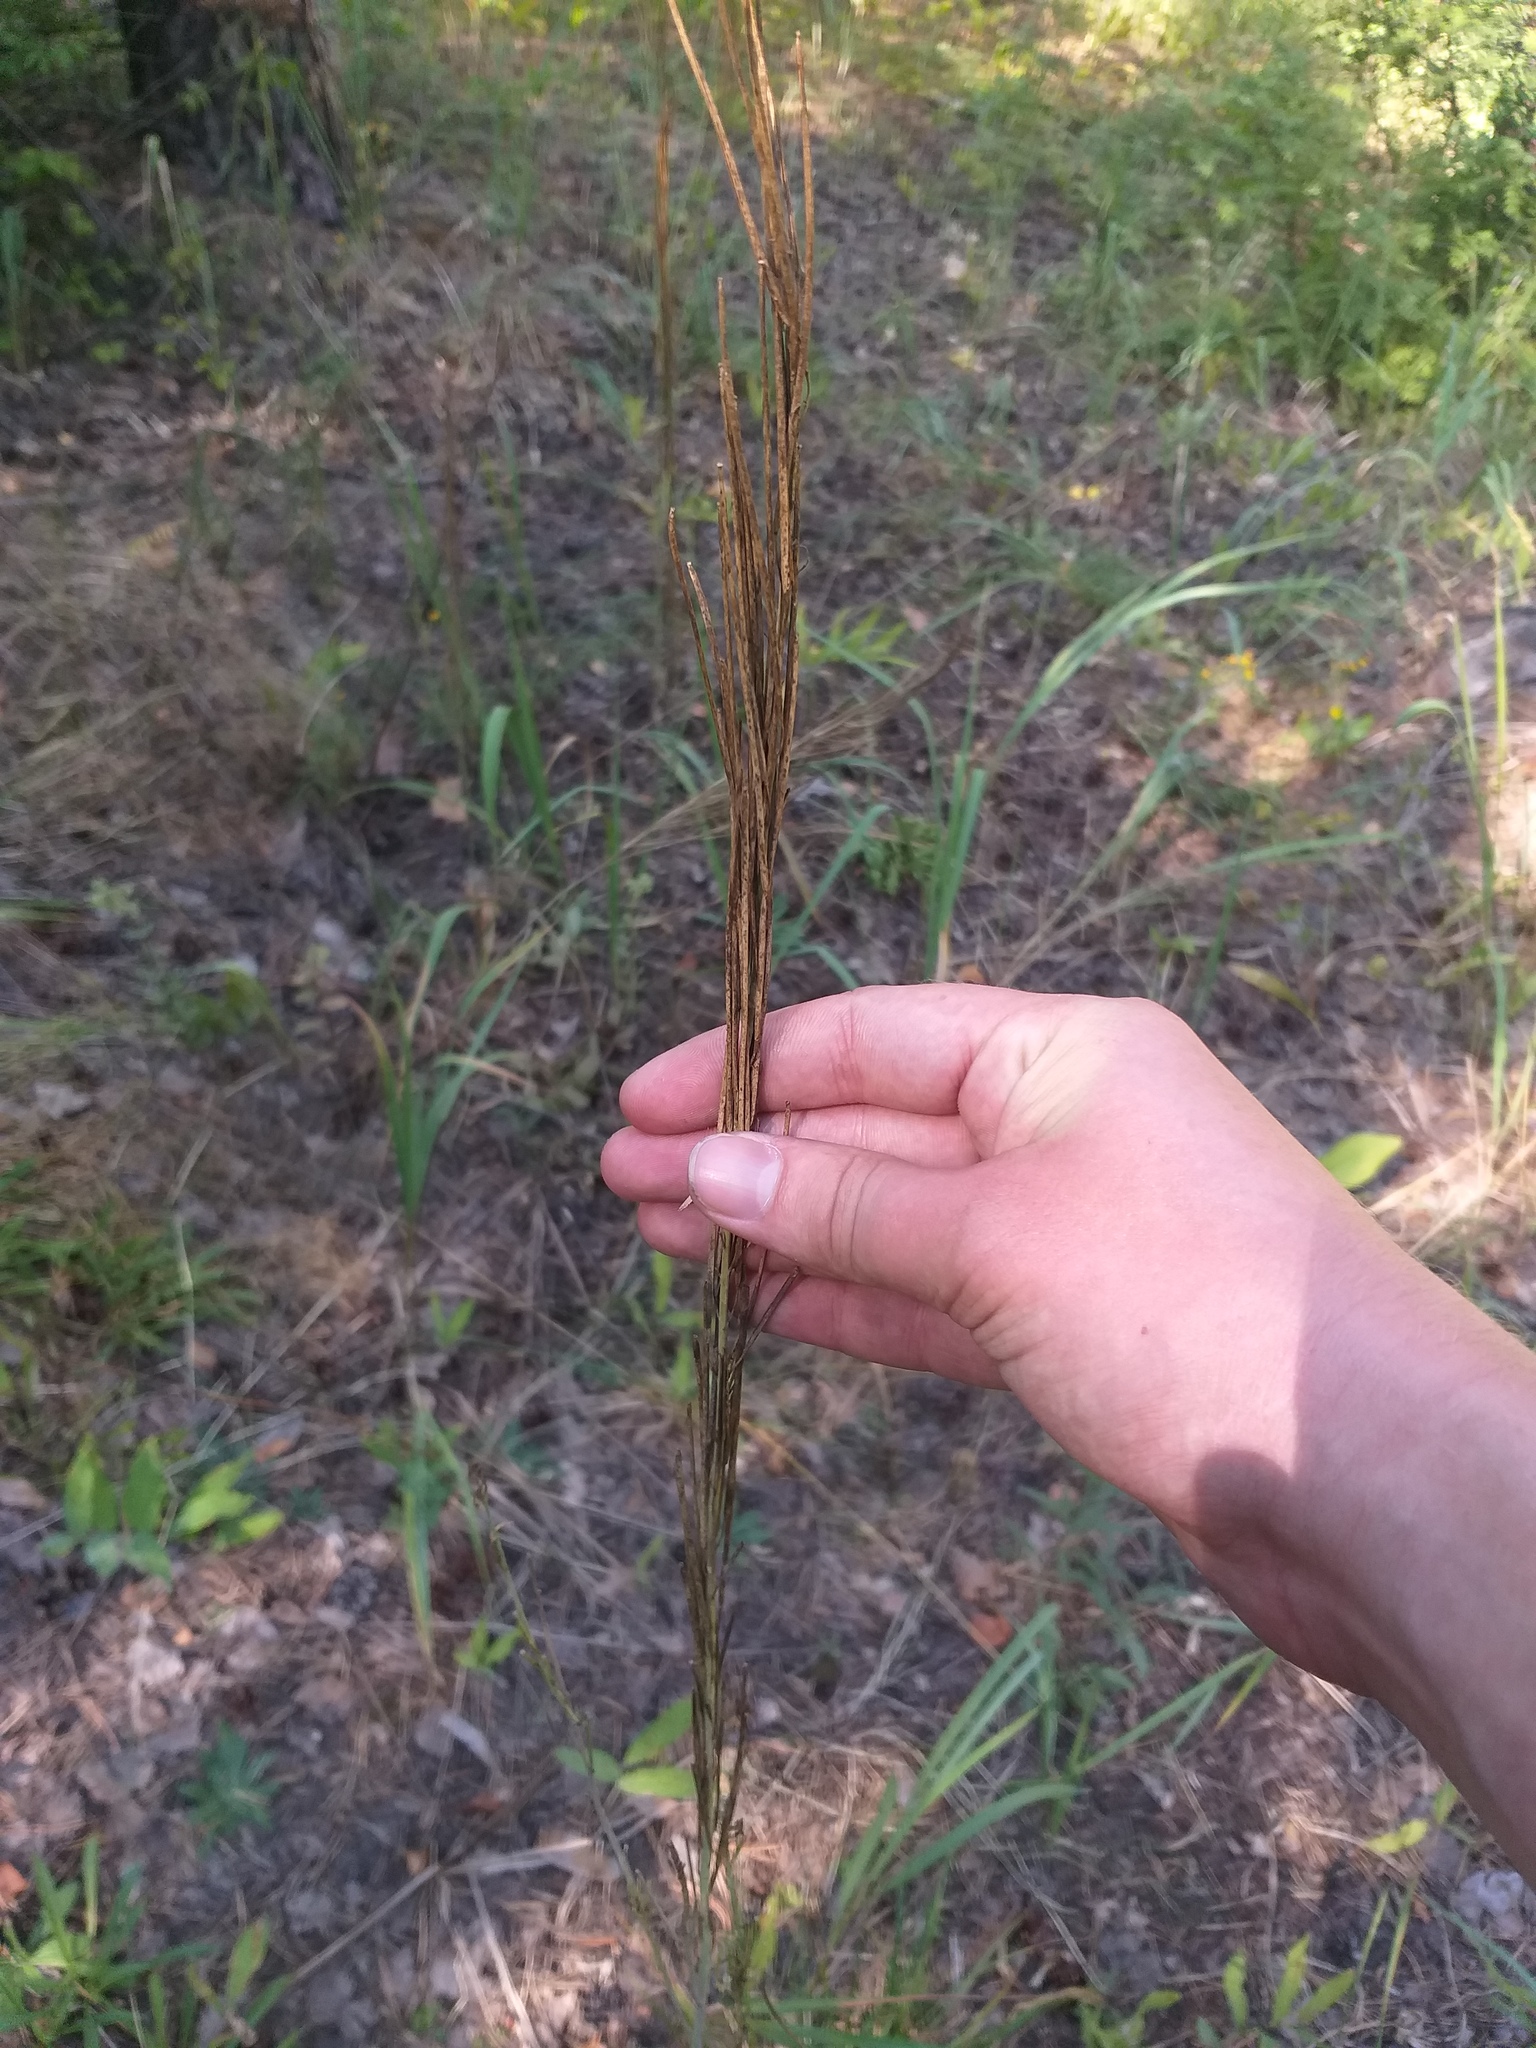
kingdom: Plantae
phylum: Tracheophyta
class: Magnoliopsida
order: Brassicales
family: Brassicaceae
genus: Turritis
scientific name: Turritis glabra
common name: Tower rockcress
